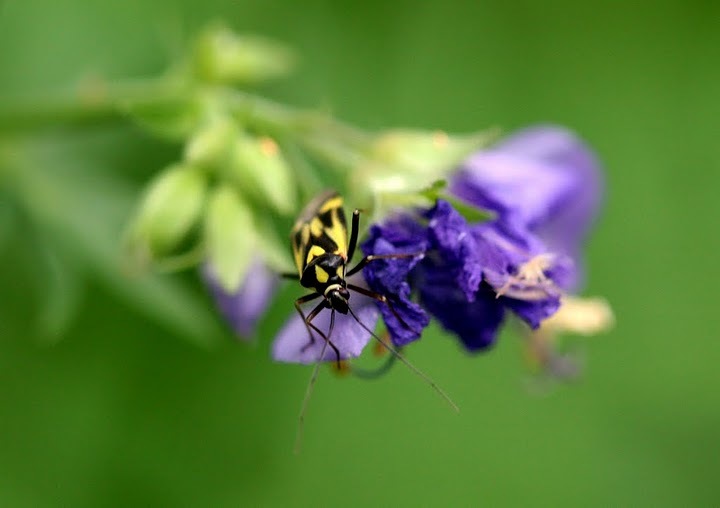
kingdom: Animalia
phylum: Arthropoda
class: Insecta
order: Hemiptera
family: Miridae
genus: Grypocoris
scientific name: Grypocoris sexguttatus
